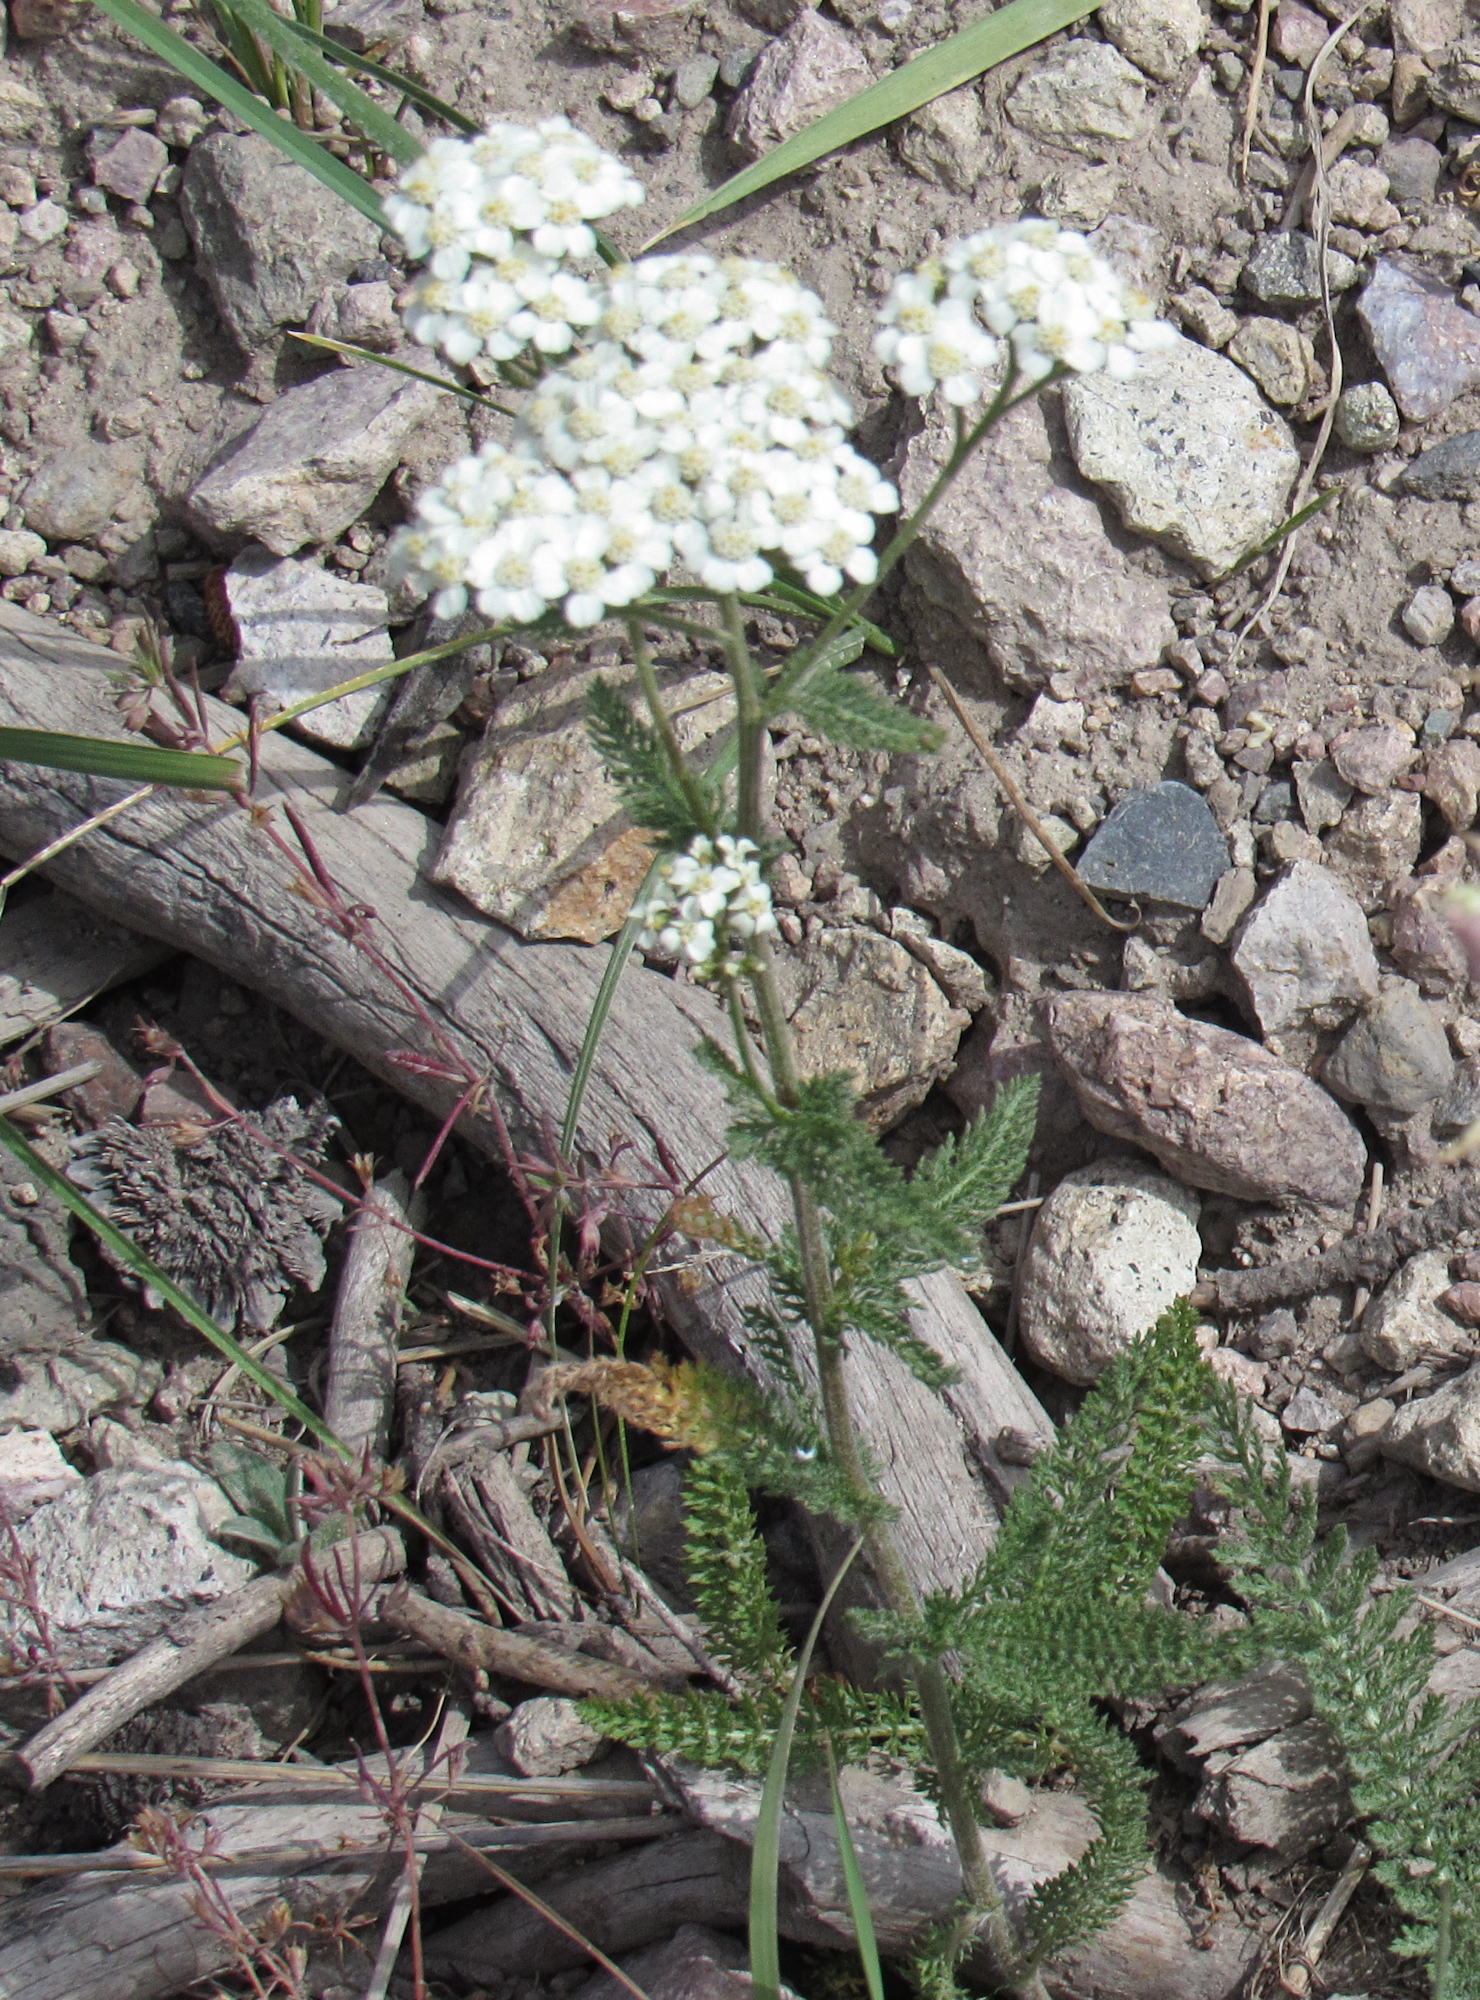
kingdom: Plantae
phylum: Tracheophyta
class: Magnoliopsida
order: Asterales
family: Asteraceae
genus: Achillea
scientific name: Achillea millefolium
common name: Yarrow
